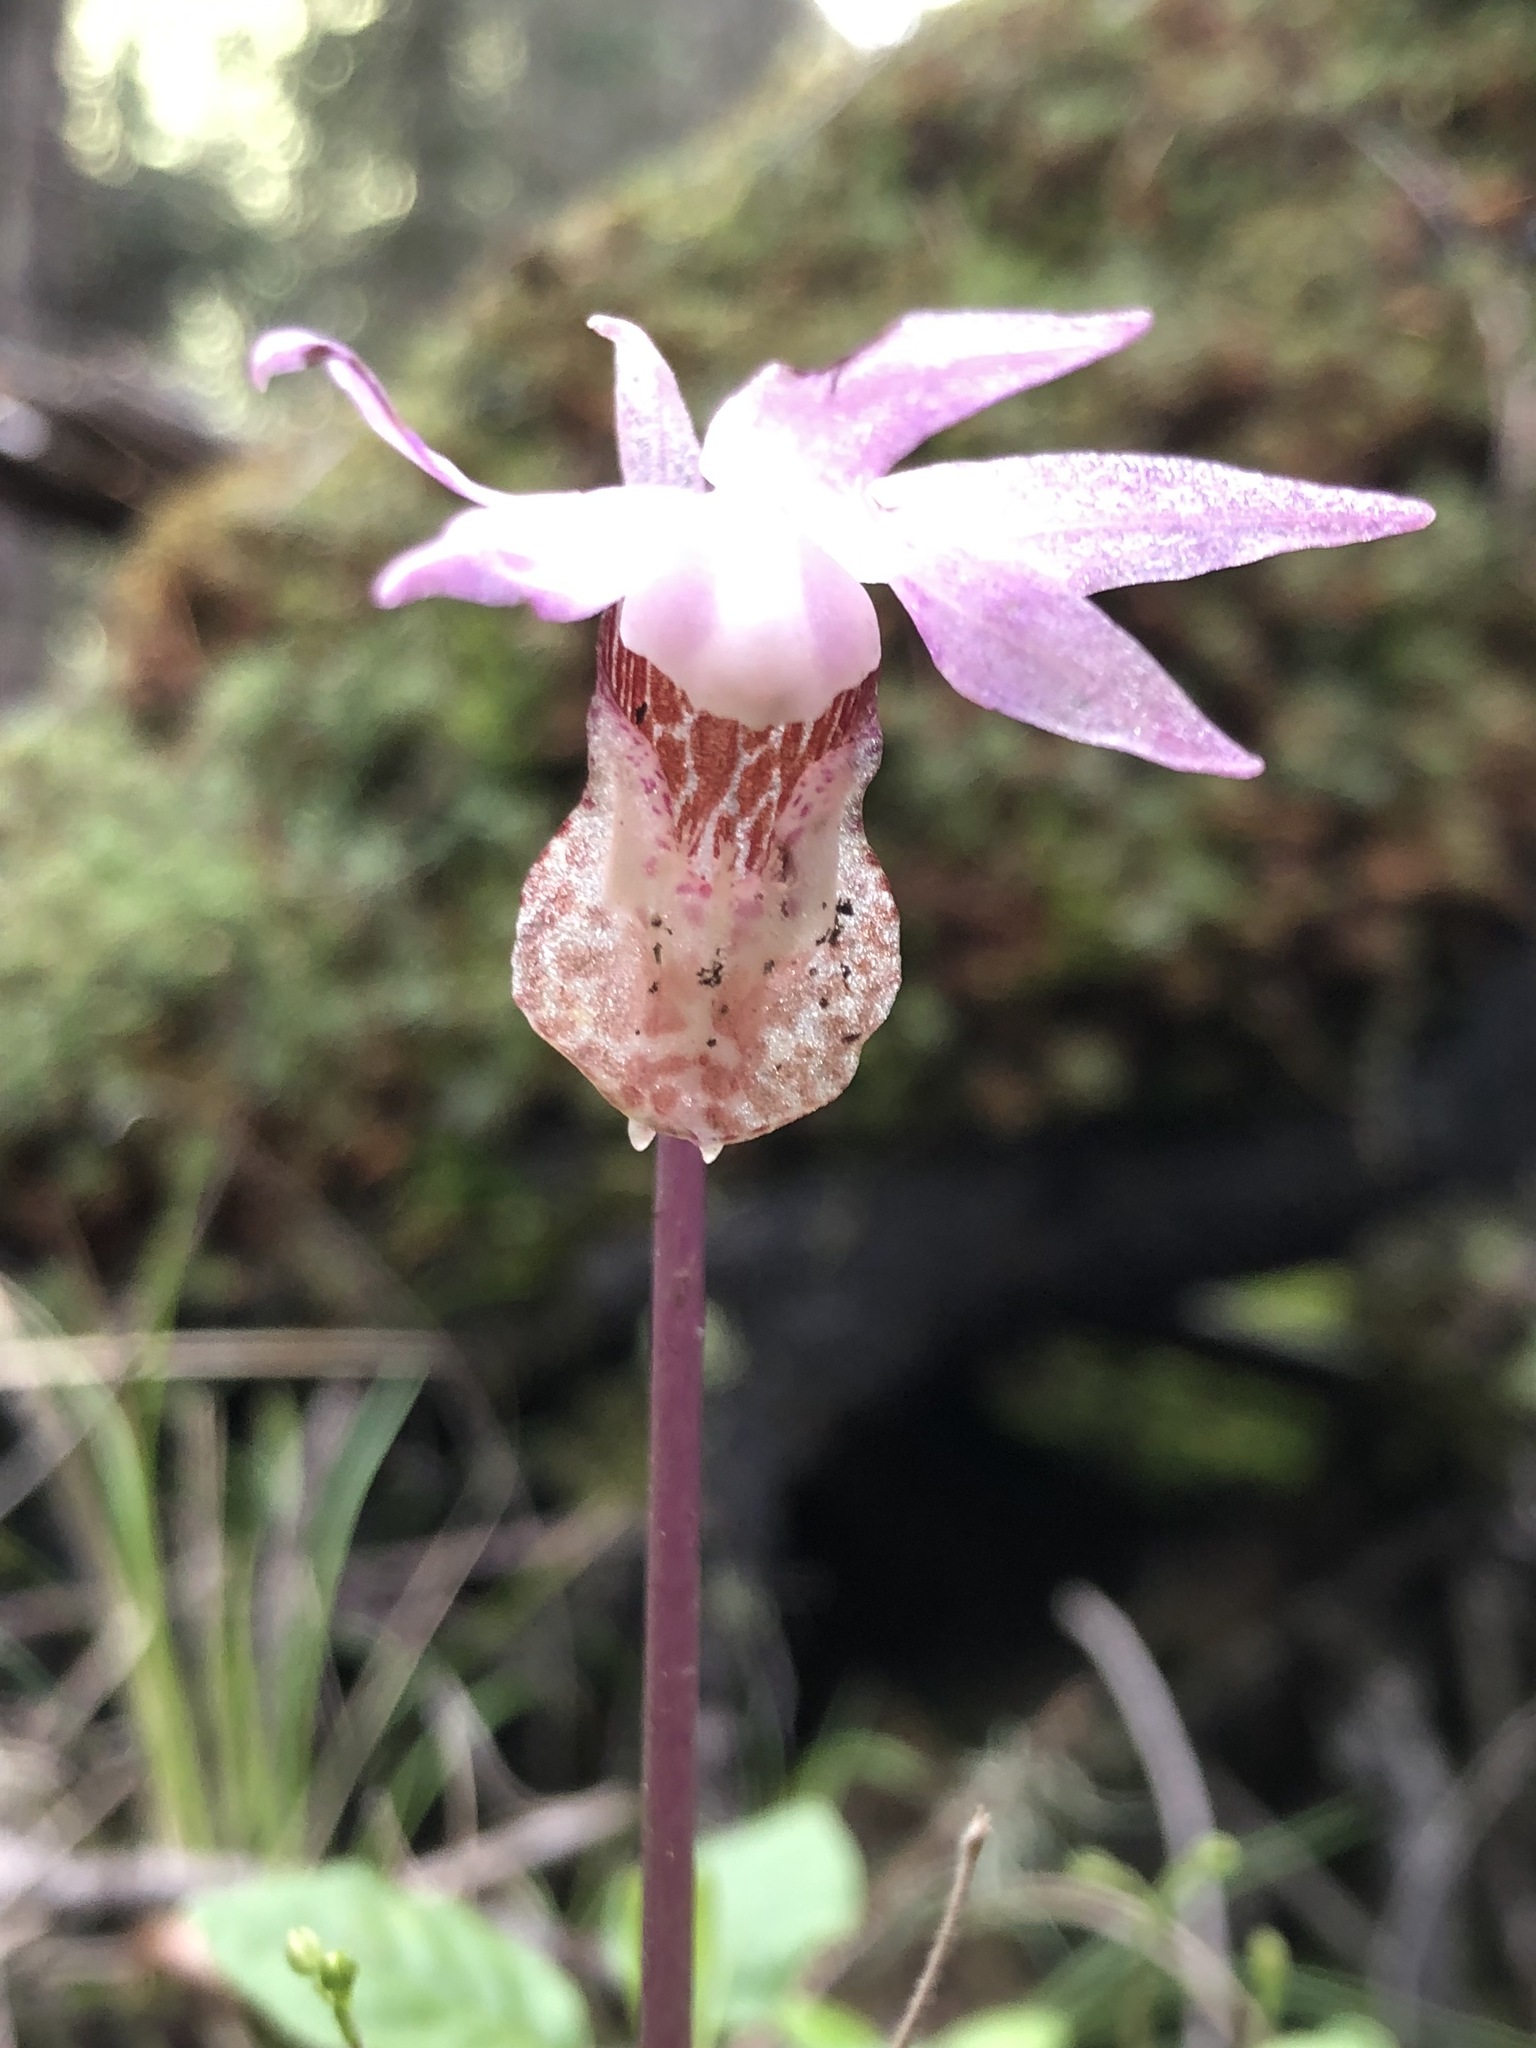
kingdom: Plantae
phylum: Tracheophyta
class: Liliopsida
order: Asparagales
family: Orchidaceae
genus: Calypso
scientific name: Calypso bulbosa
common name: Calypso
